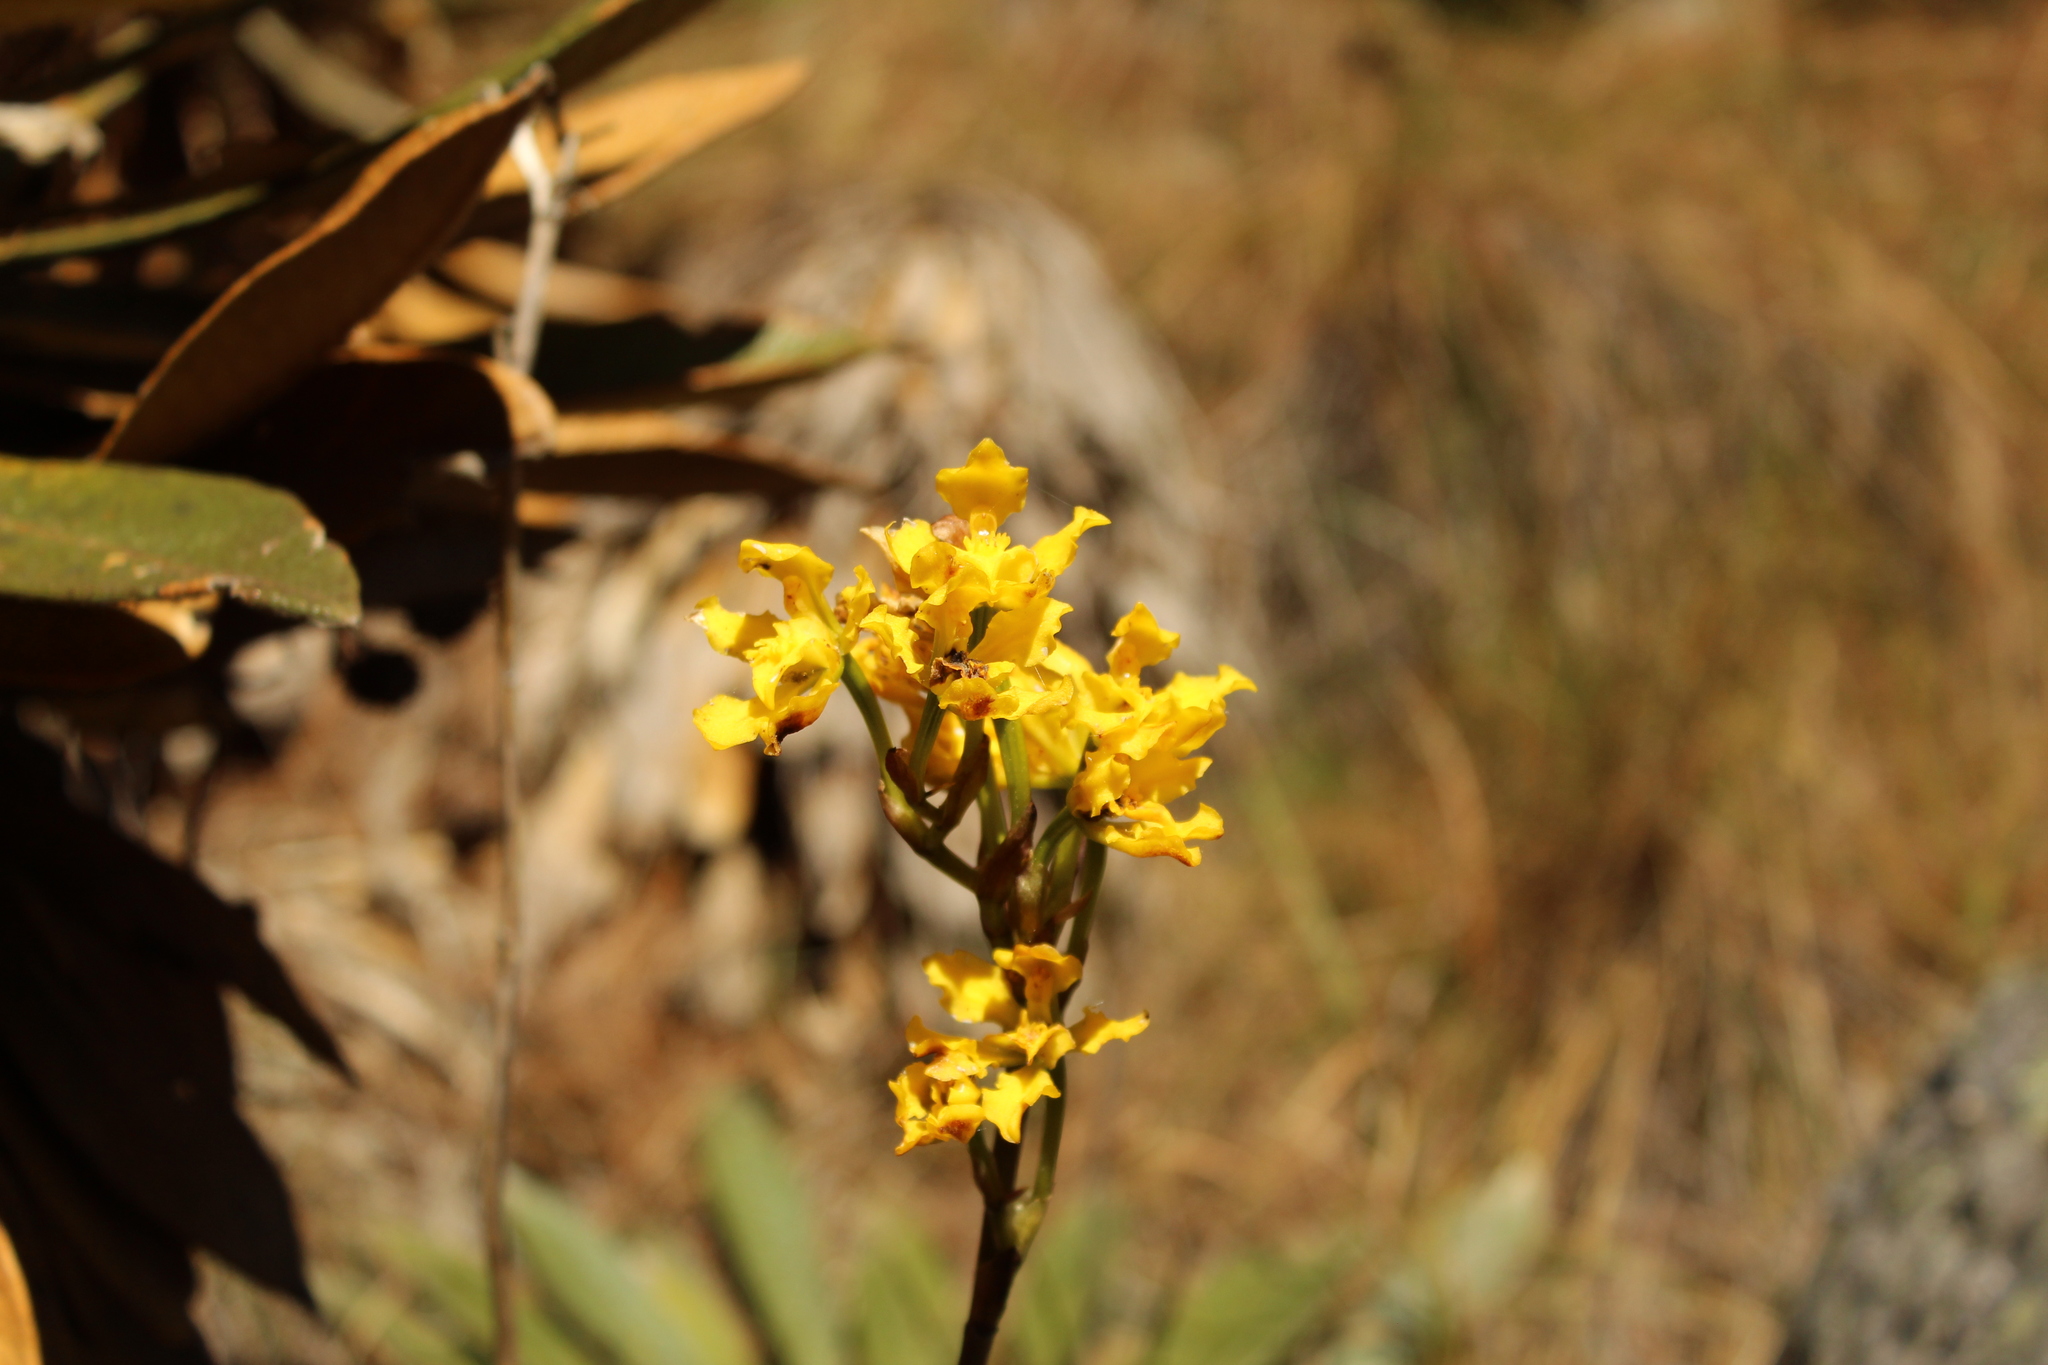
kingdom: Plantae
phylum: Tracheophyta
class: Liliopsida
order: Asparagales
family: Orchidaceae
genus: Cyrtochilum
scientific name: Cyrtochilum revolutum
